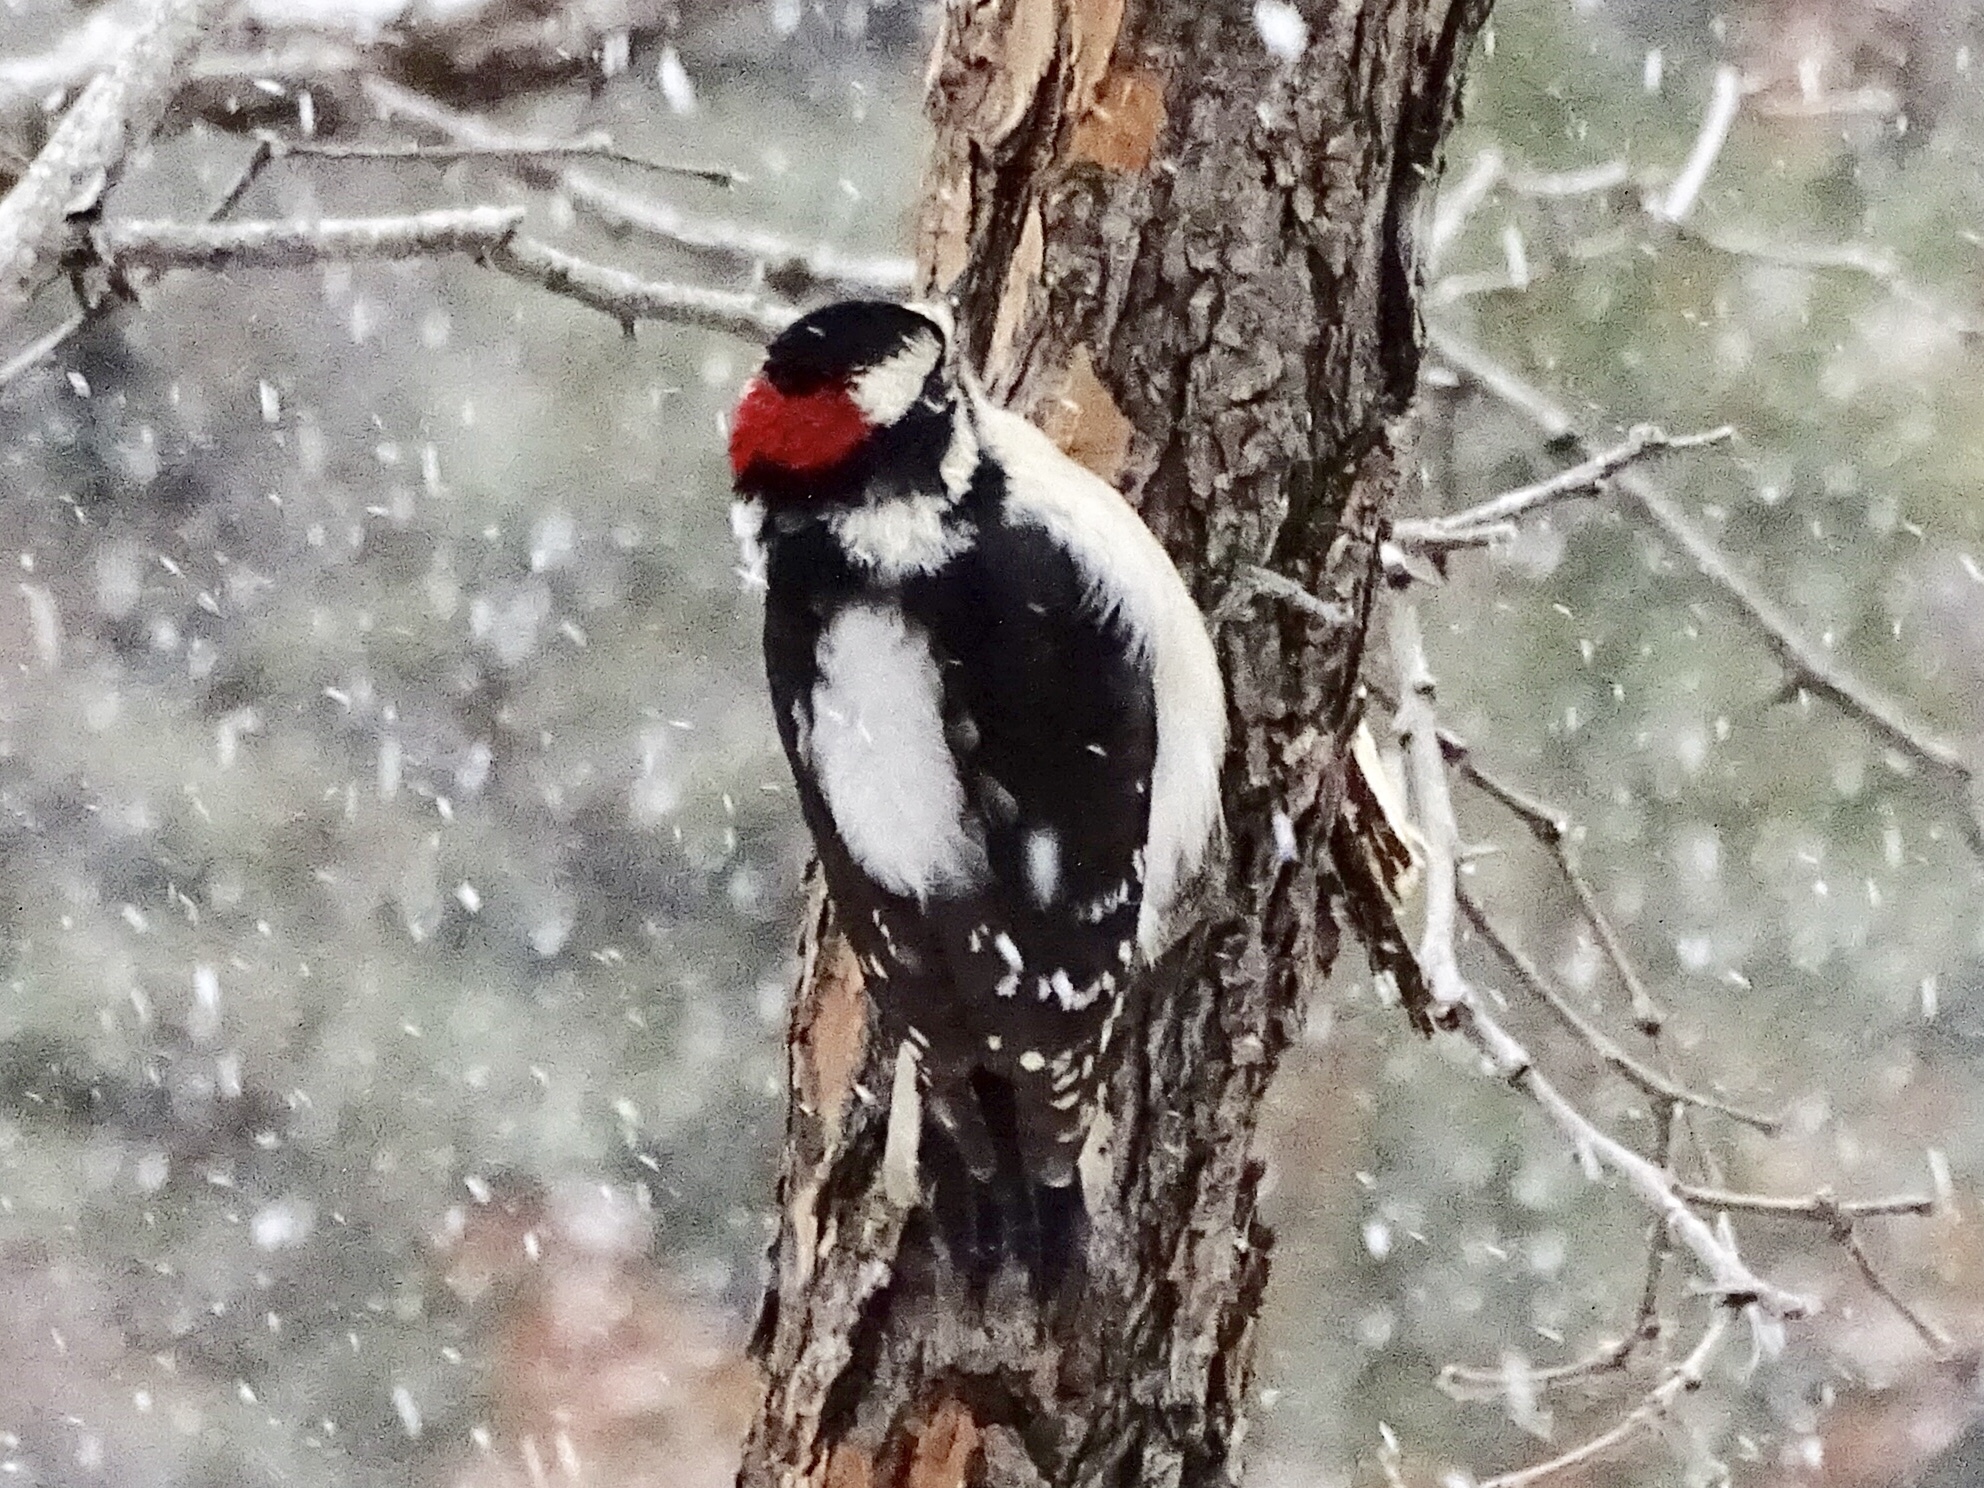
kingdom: Animalia
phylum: Chordata
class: Aves
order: Piciformes
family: Picidae
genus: Dryobates
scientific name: Dryobates pubescens
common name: Downy woodpecker
